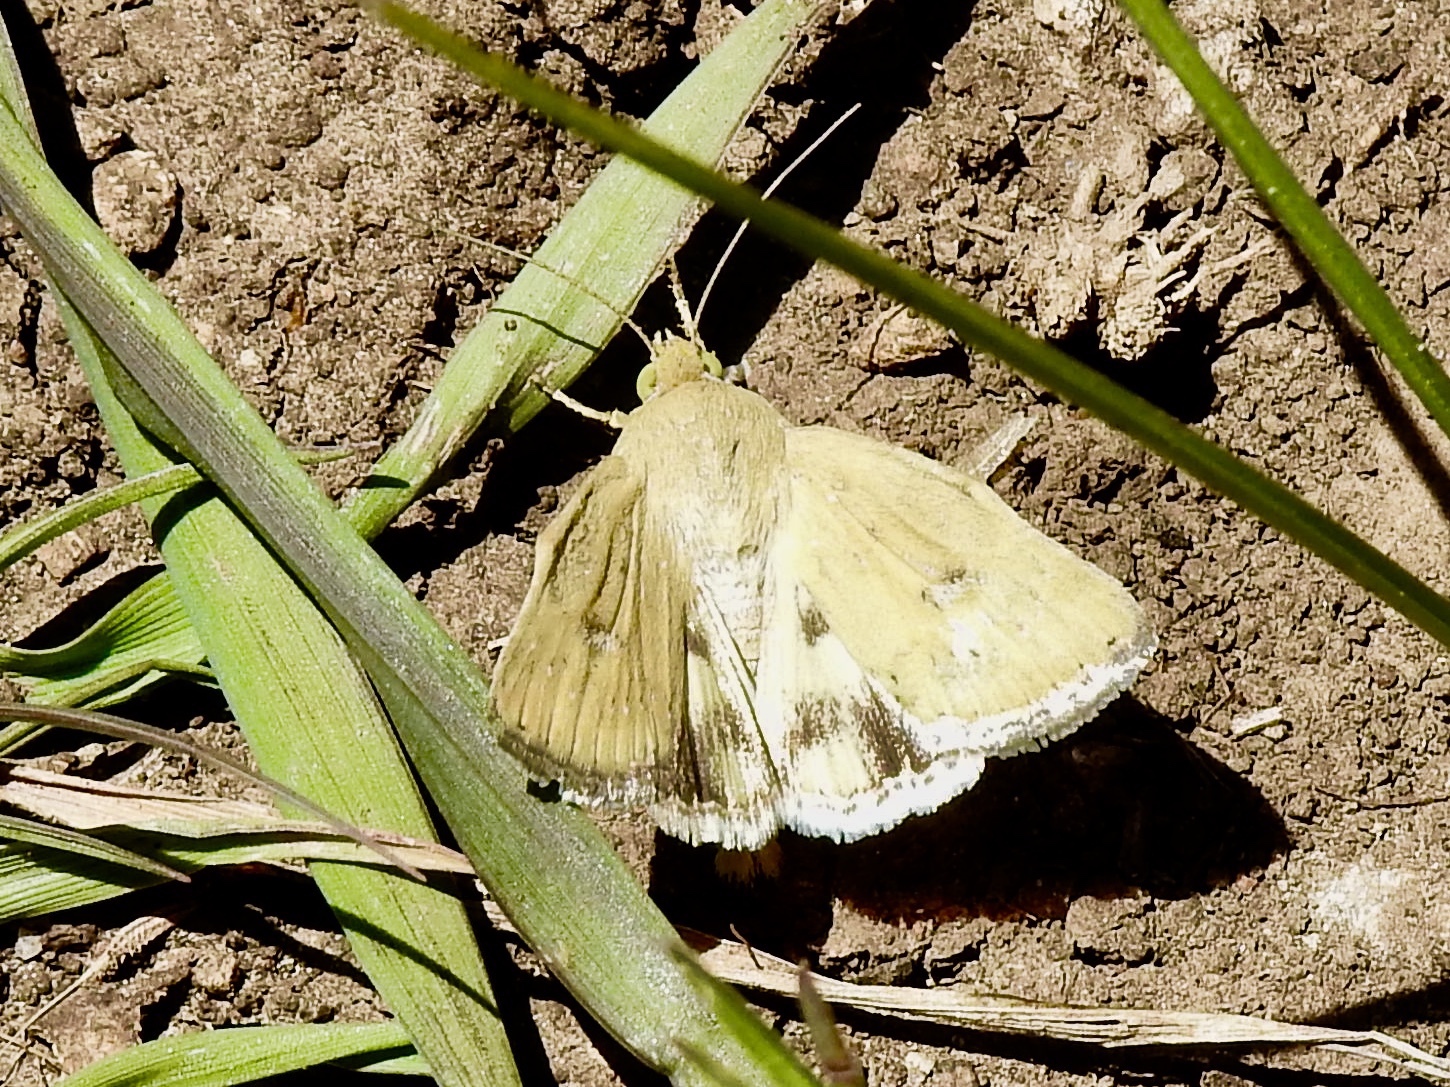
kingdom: Animalia
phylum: Arthropoda
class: Insecta
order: Lepidoptera
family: Noctuidae
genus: Heliocheilus
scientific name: Heliocheilus paradoxus
